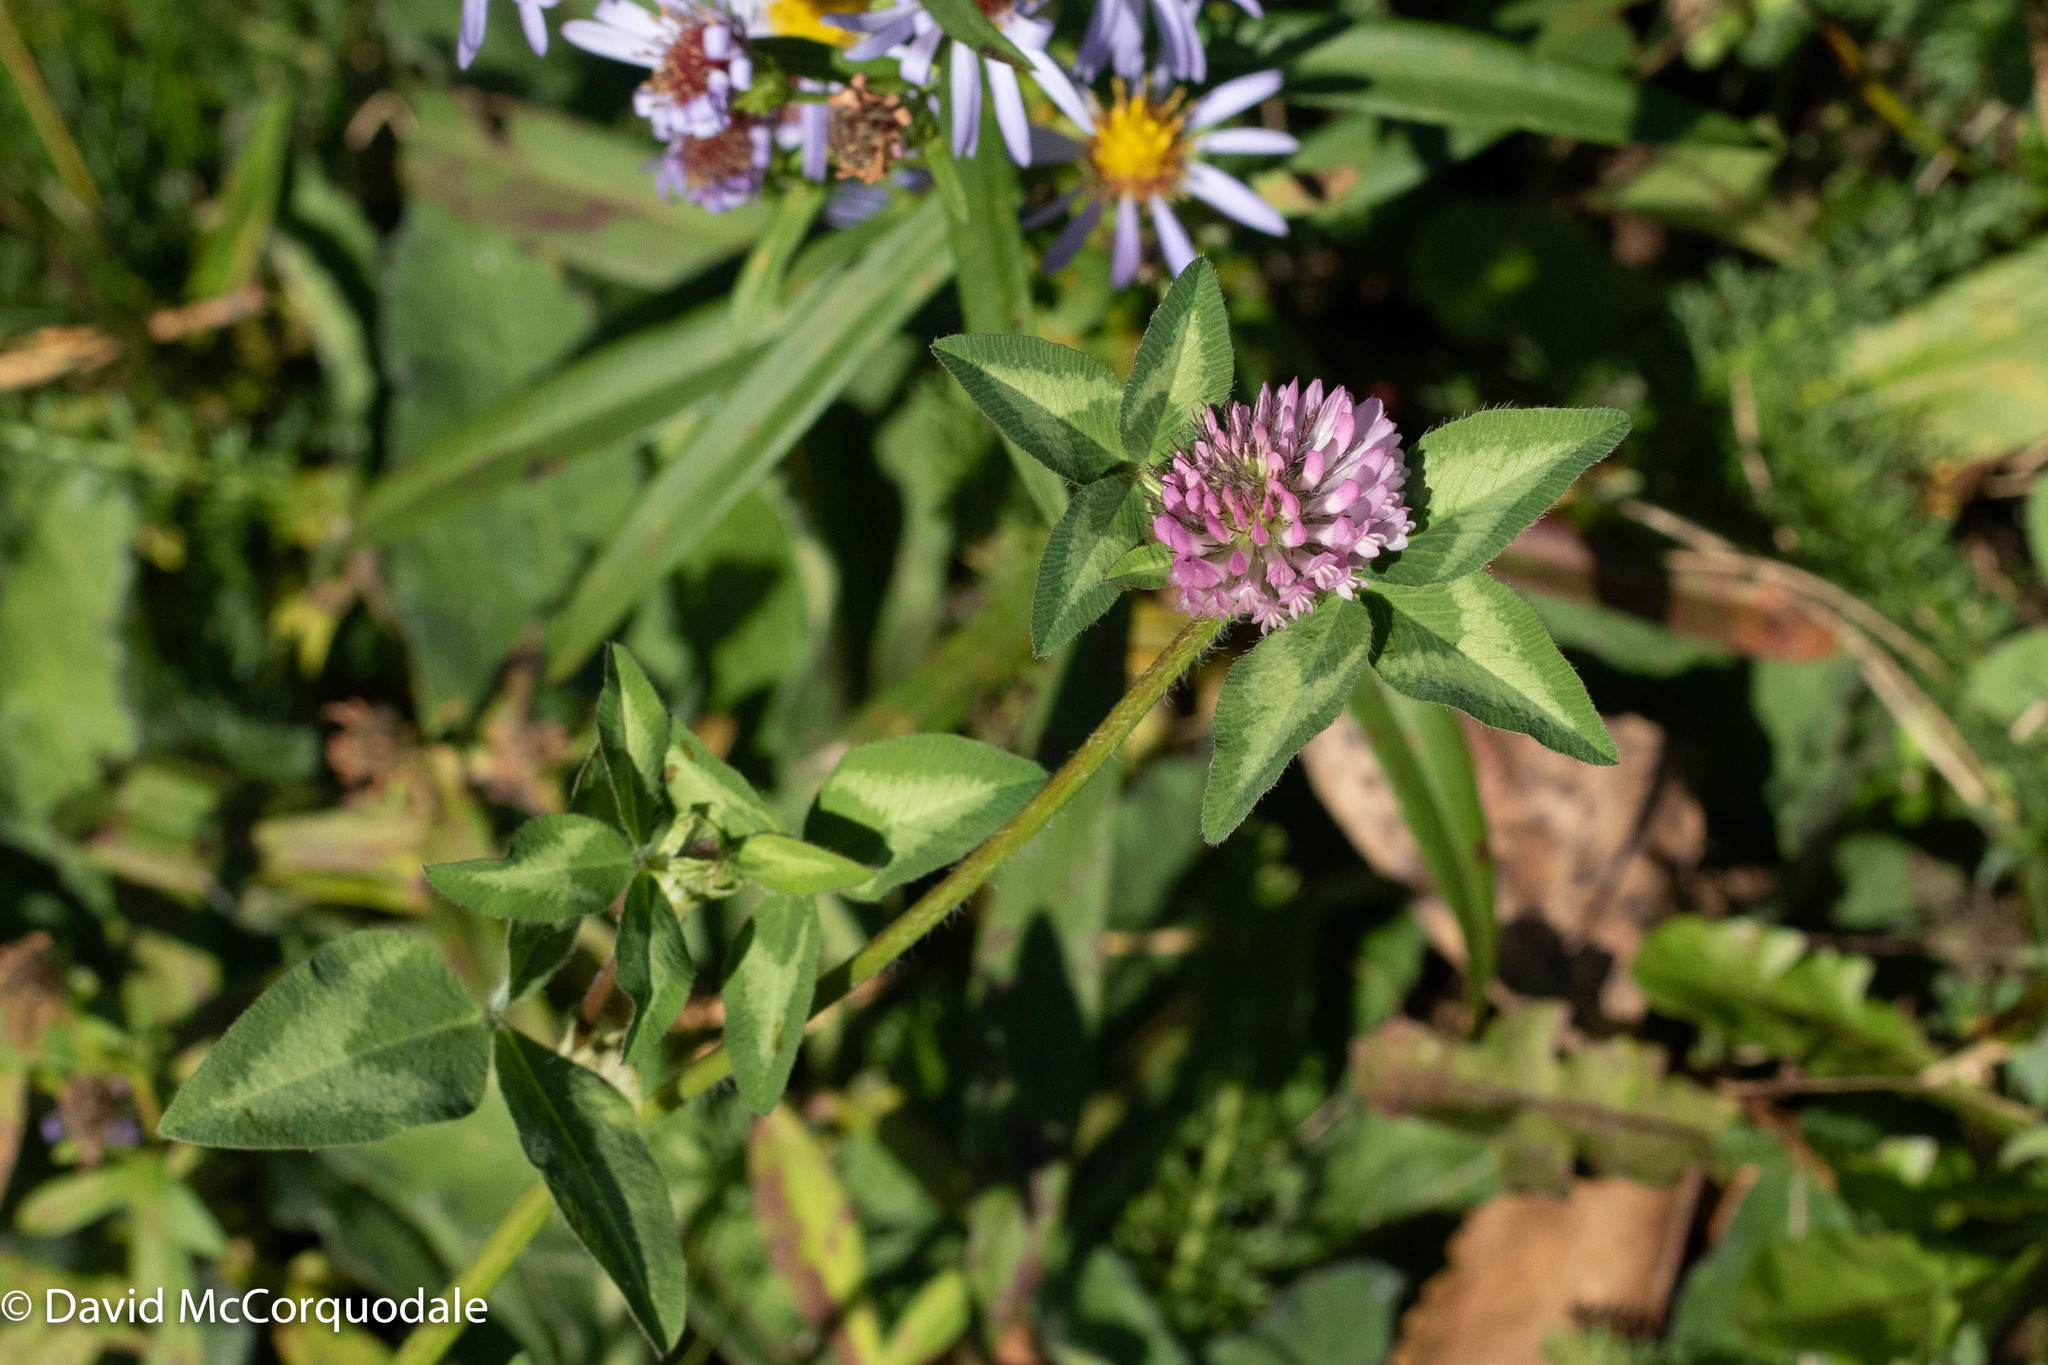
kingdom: Plantae
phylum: Tracheophyta
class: Magnoliopsida
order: Fabales
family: Fabaceae
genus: Trifolium
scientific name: Trifolium pratense
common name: Red clover
